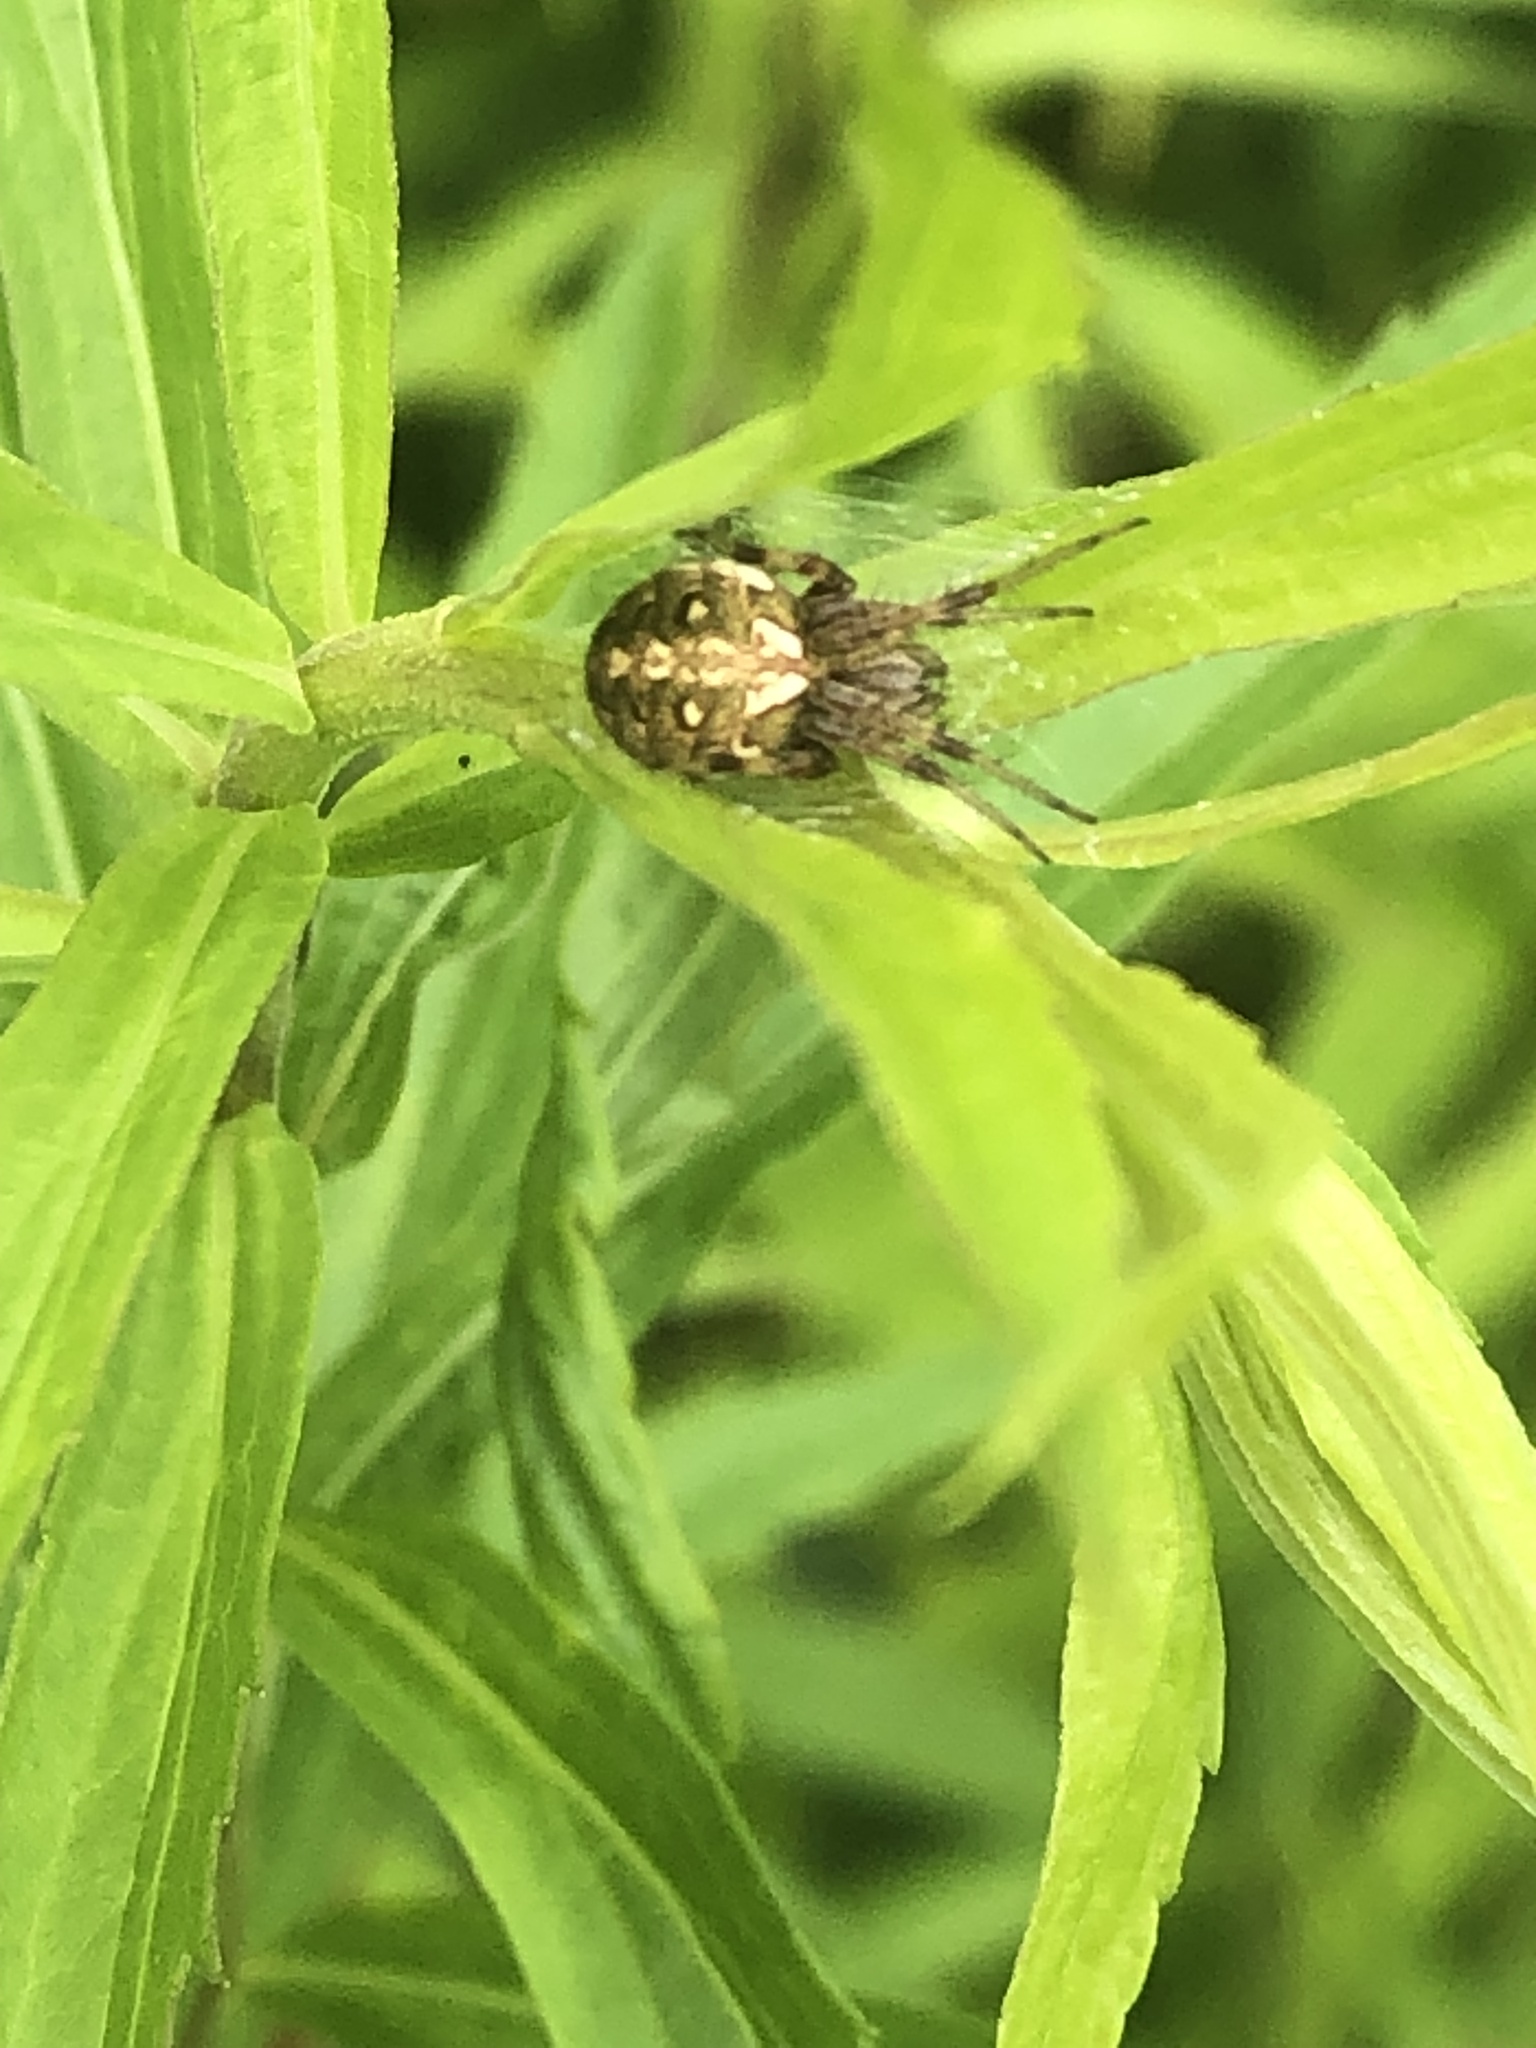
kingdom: Animalia
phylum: Arthropoda
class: Arachnida
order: Araneae
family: Araneidae
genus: Neoscona
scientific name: Neoscona arabesca
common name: Orb weavers
